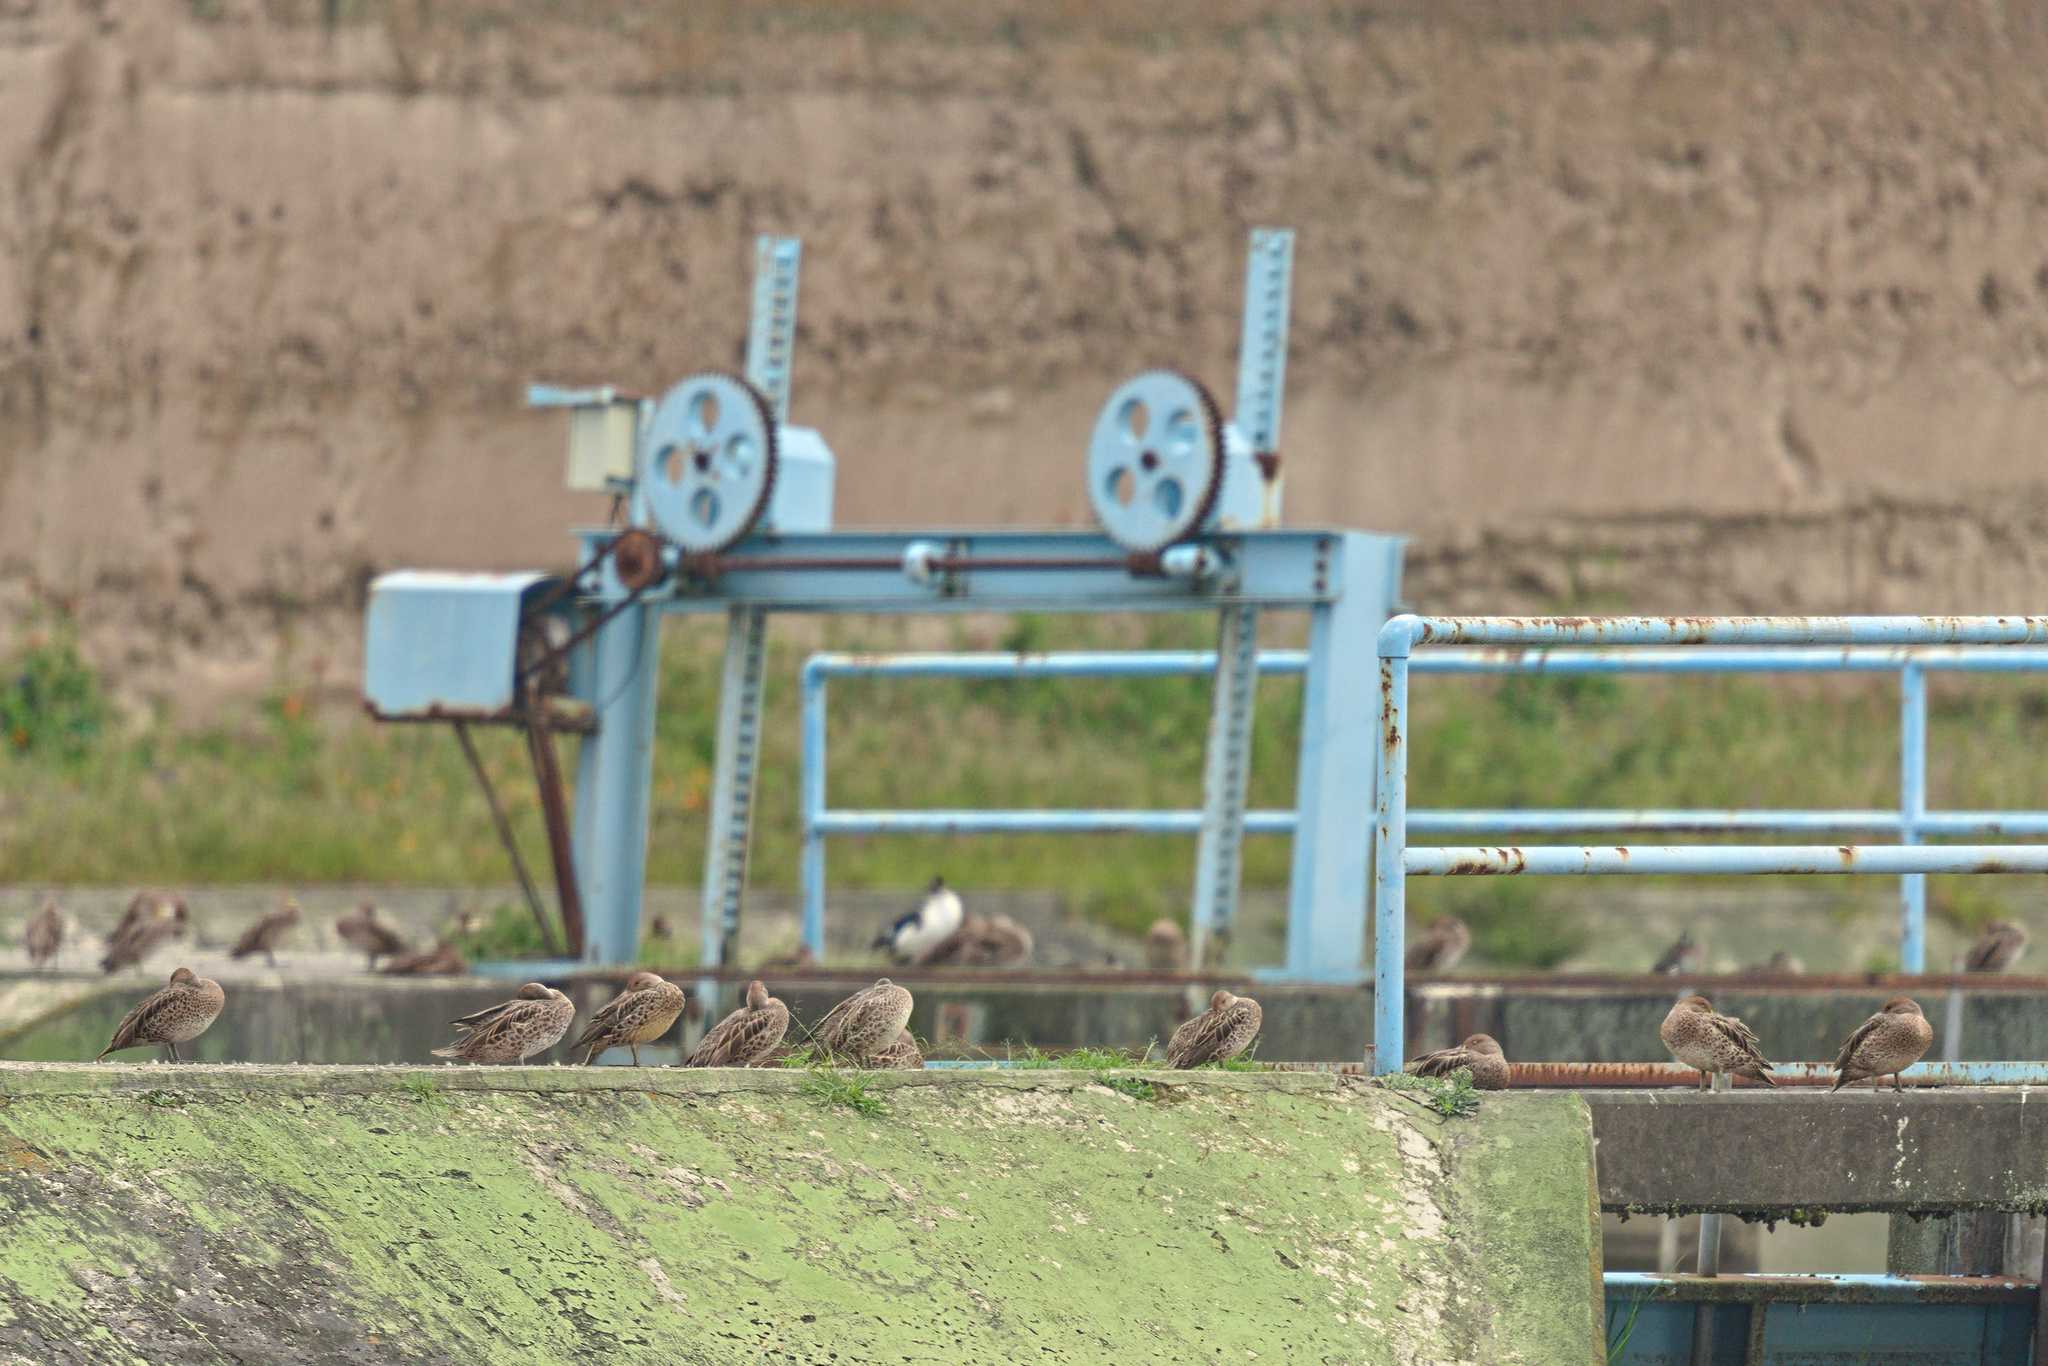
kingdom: Animalia
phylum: Chordata
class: Aves
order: Anseriformes
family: Anatidae
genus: Anas
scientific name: Anas georgica
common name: Yellow-billed pintail
